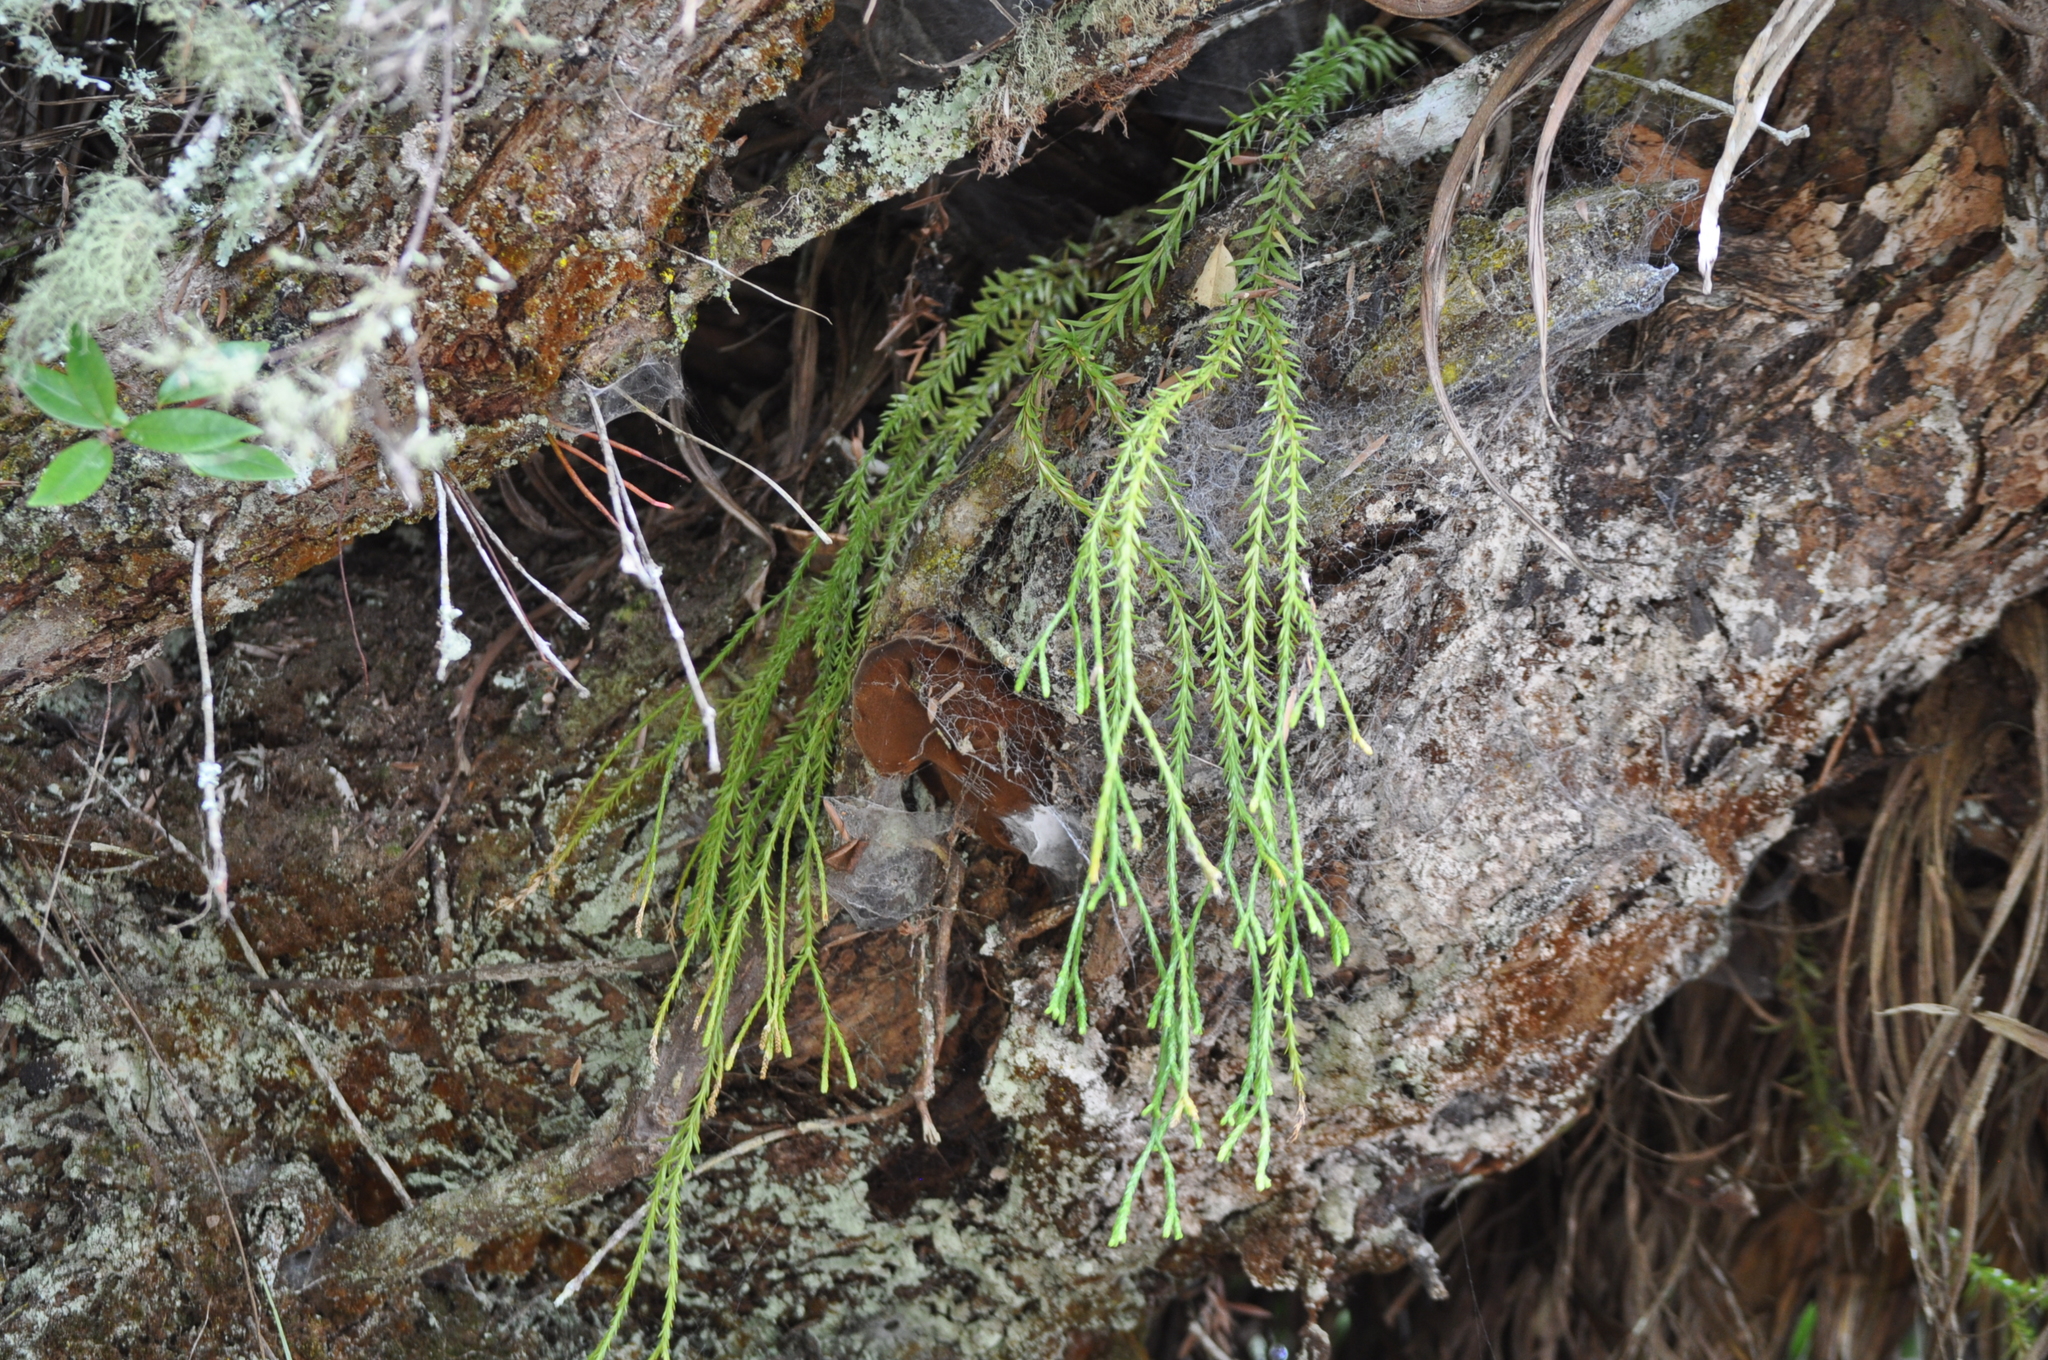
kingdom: Plantae
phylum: Tracheophyta
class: Lycopodiopsida
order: Lycopodiales
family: Lycopodiaceae
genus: Phlegmariurus
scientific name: Phlegmariurus billardierei
